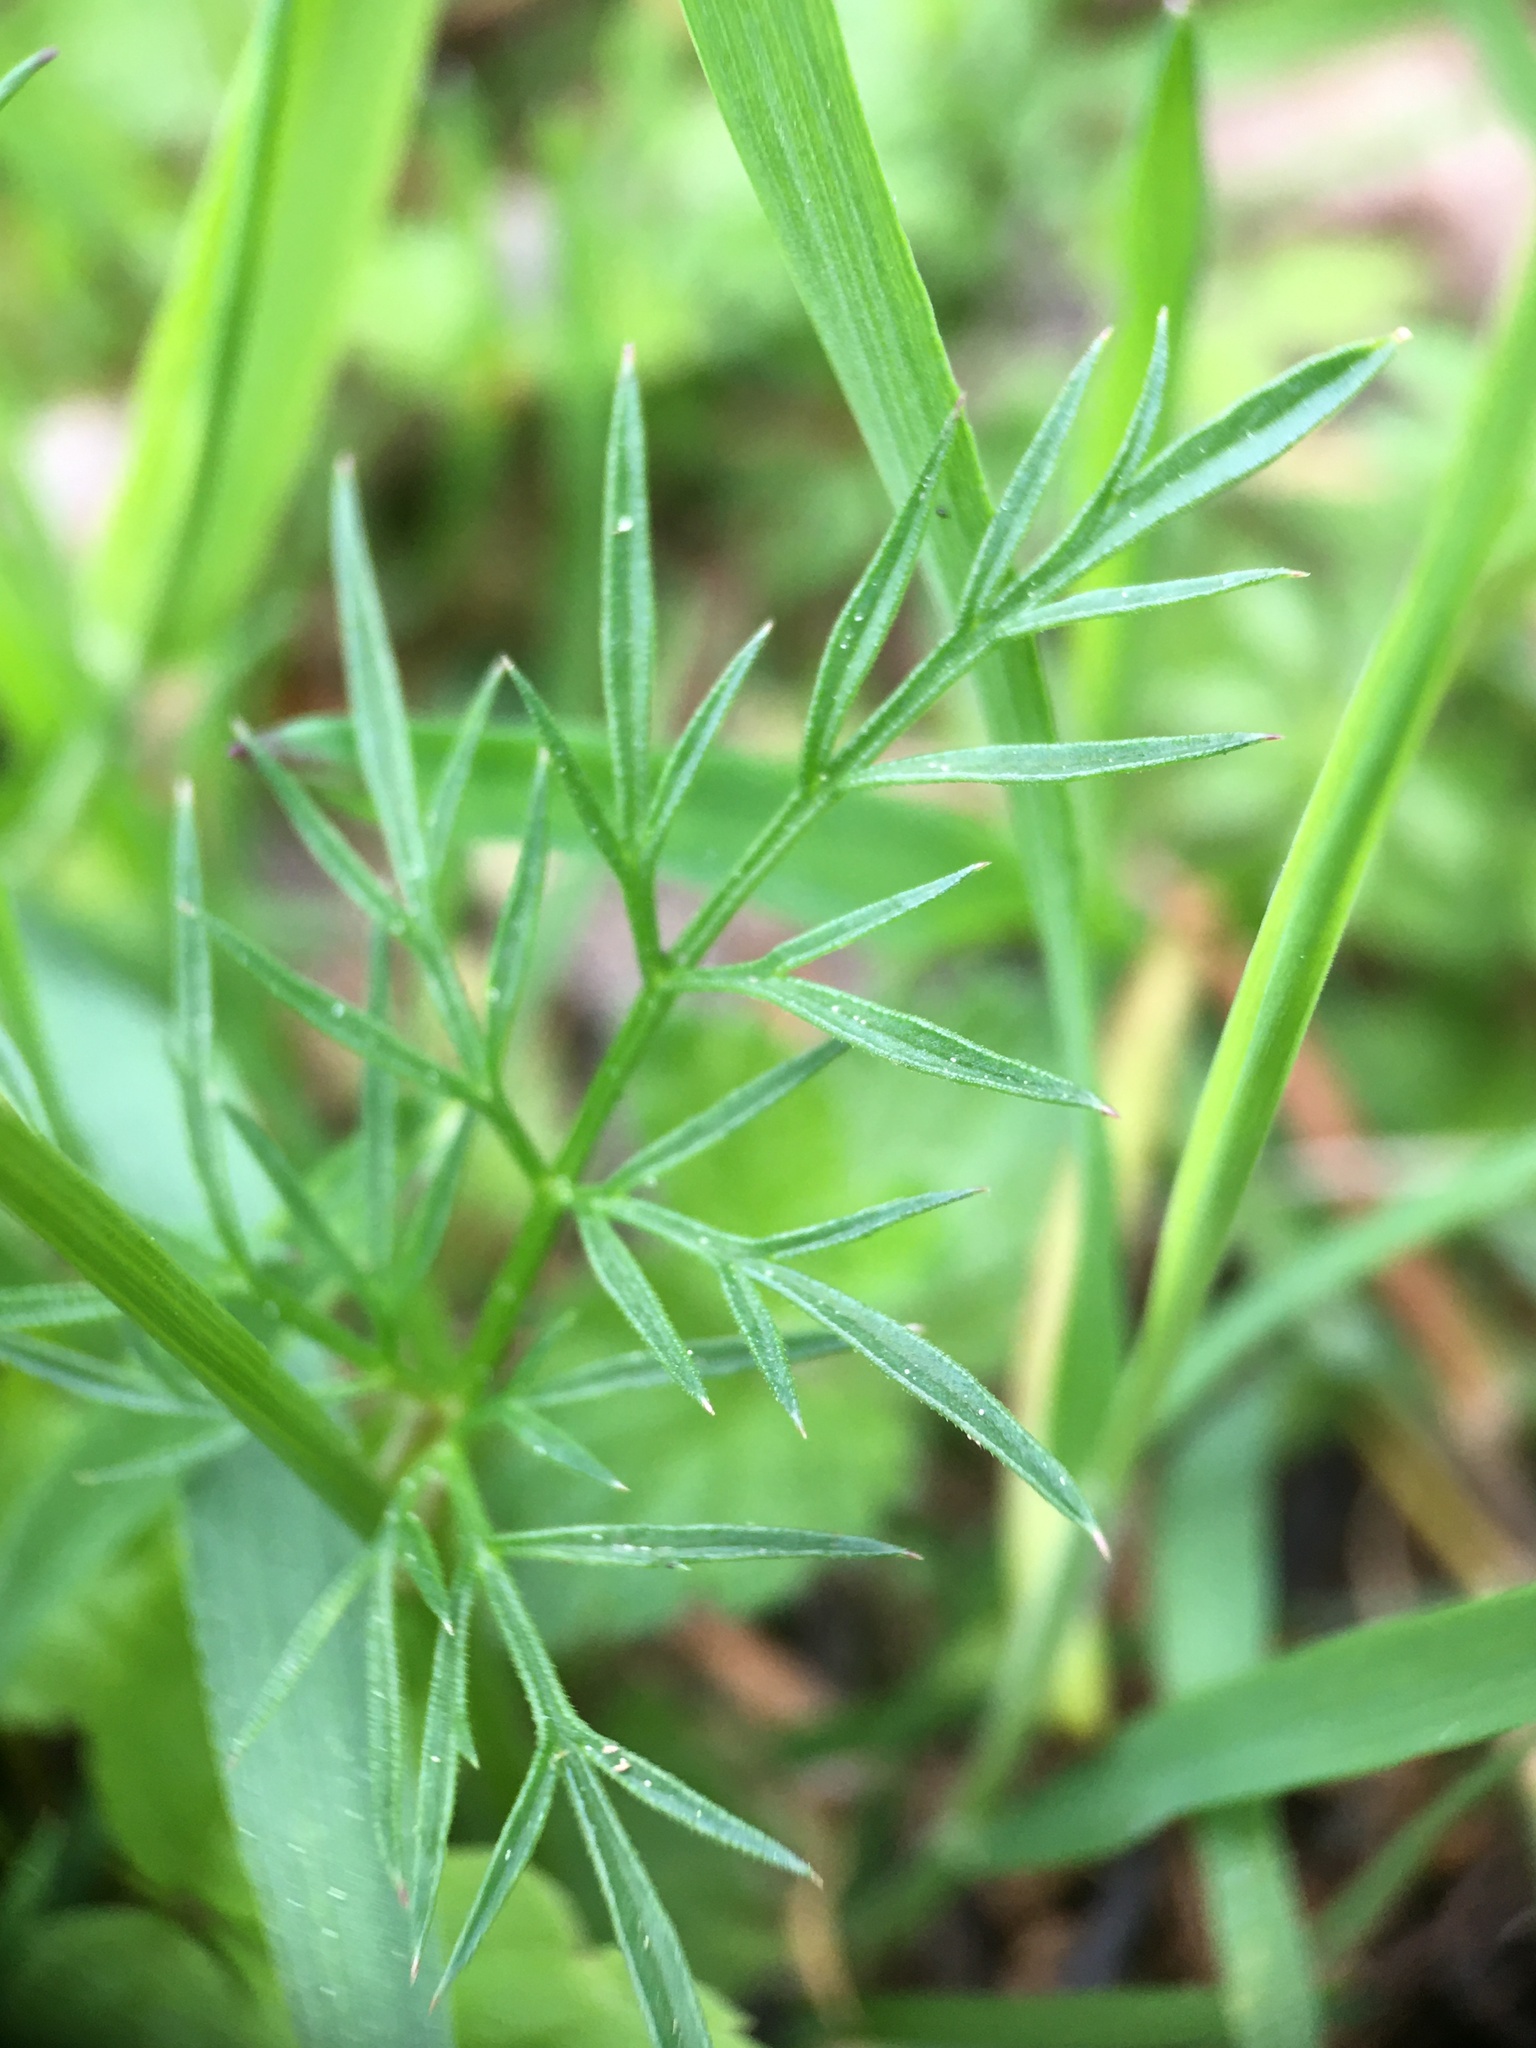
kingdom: Plantae
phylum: Tracheophyta
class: Magnoliopsida
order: Apiales
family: Apiaceae
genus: Conopodium
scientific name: Conopodium majus
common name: Pignut
